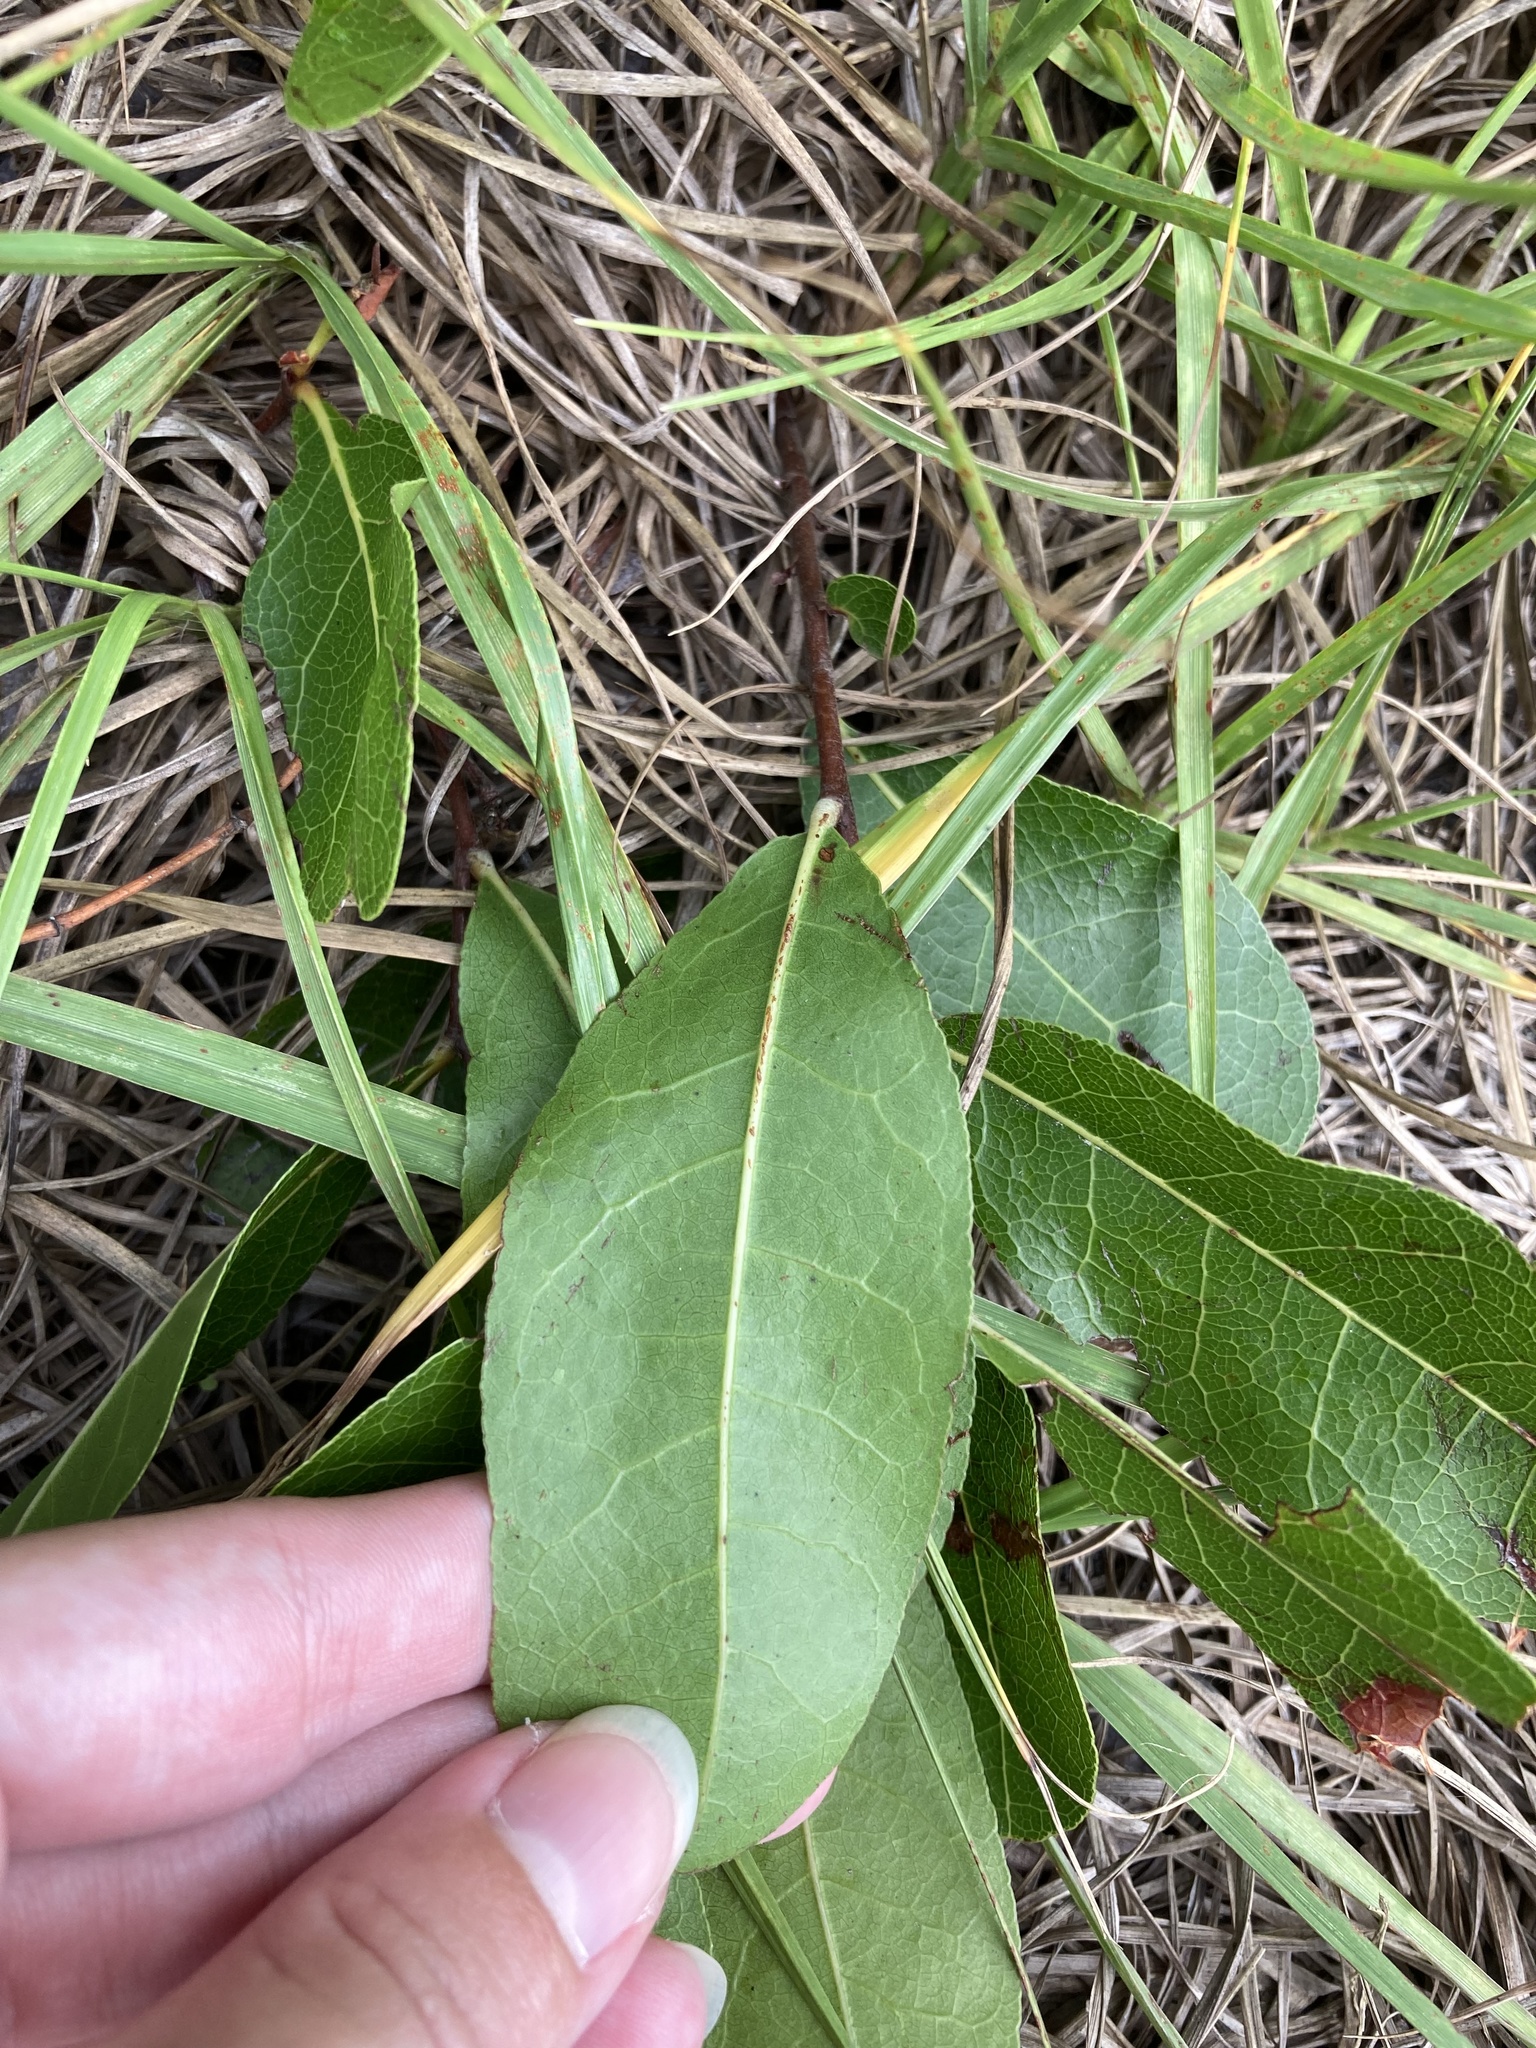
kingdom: Plantae
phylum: Tracheophyta
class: Magnoliopsida
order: Malpighiales
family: Chrysobalanaceae
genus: Geobalanus
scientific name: Geobalanus oblongifolius
